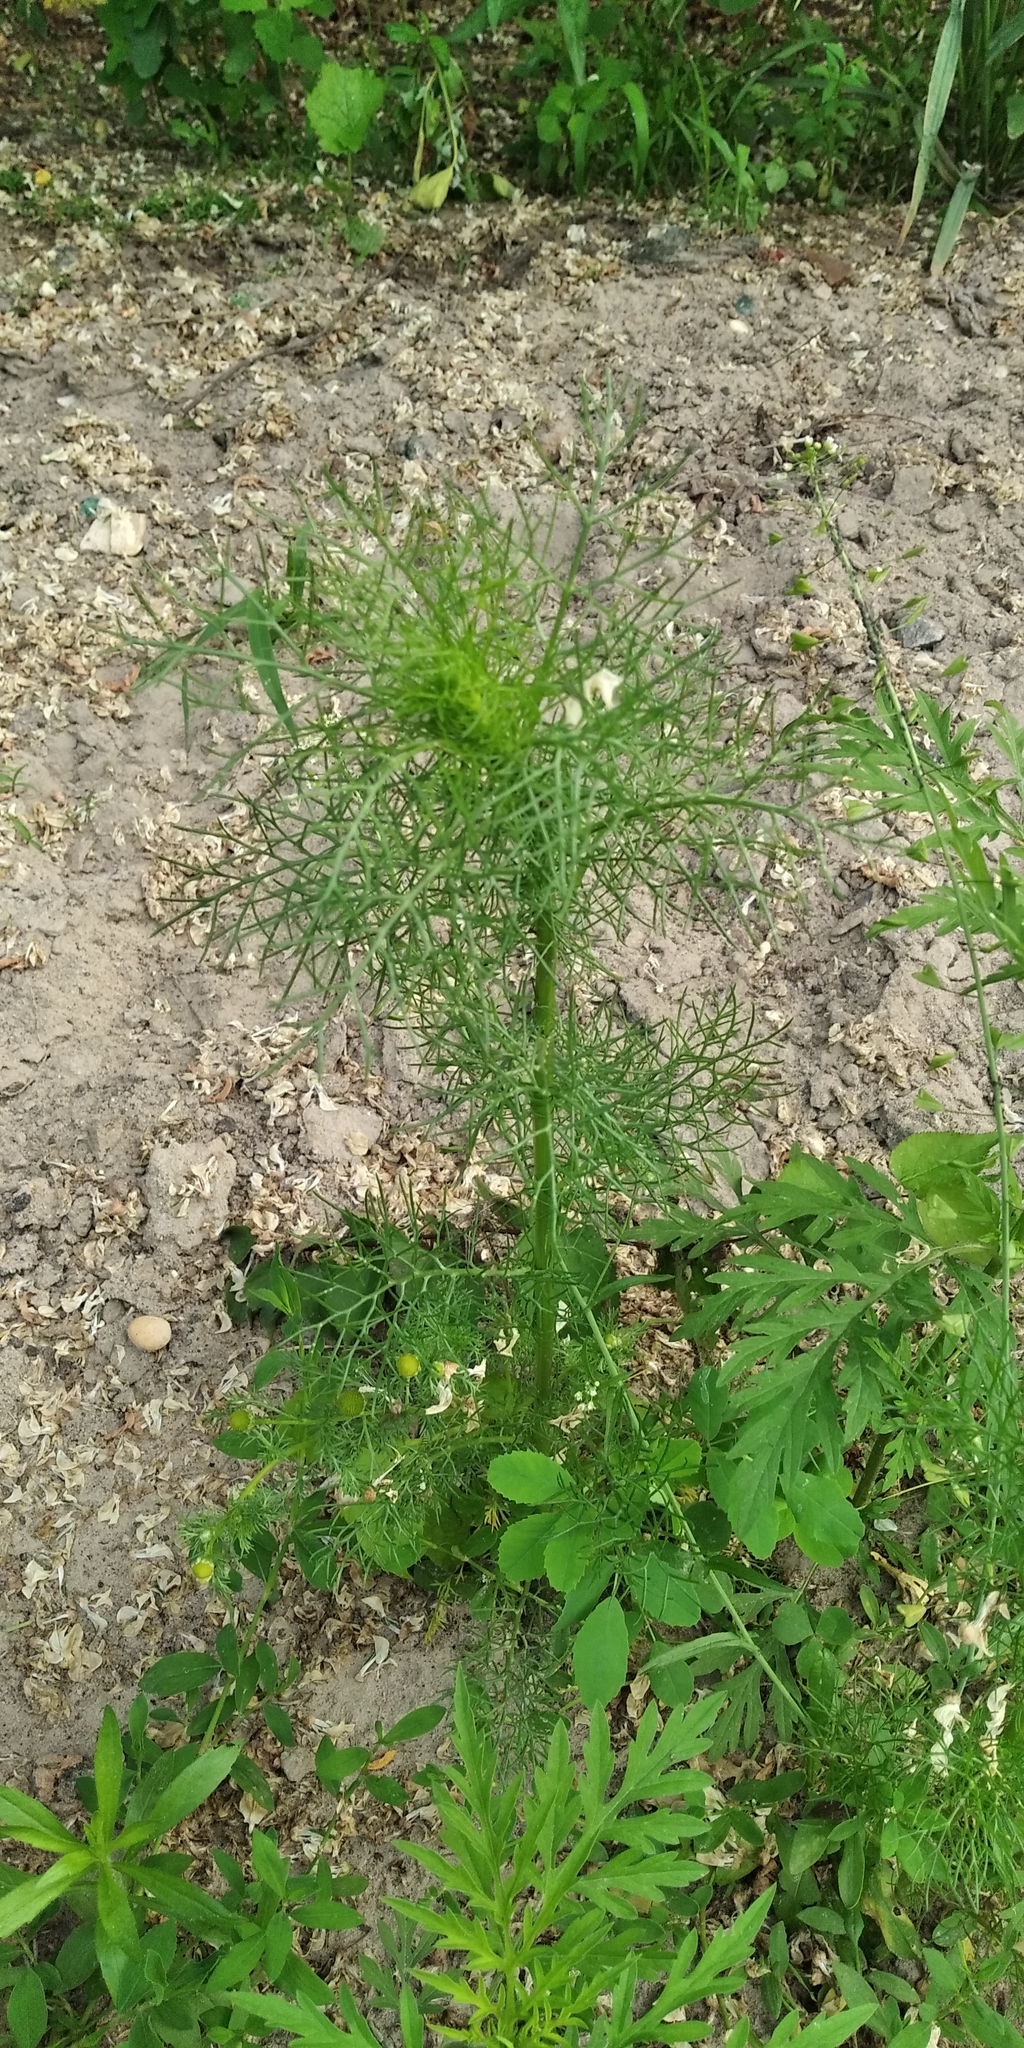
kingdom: Plantae
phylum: Tracheophyta
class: Magnoliopsida
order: Asterales
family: Asteraceae
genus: Tripleurospermum
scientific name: Tripleurospermum inodorum
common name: Scentless mayweed
